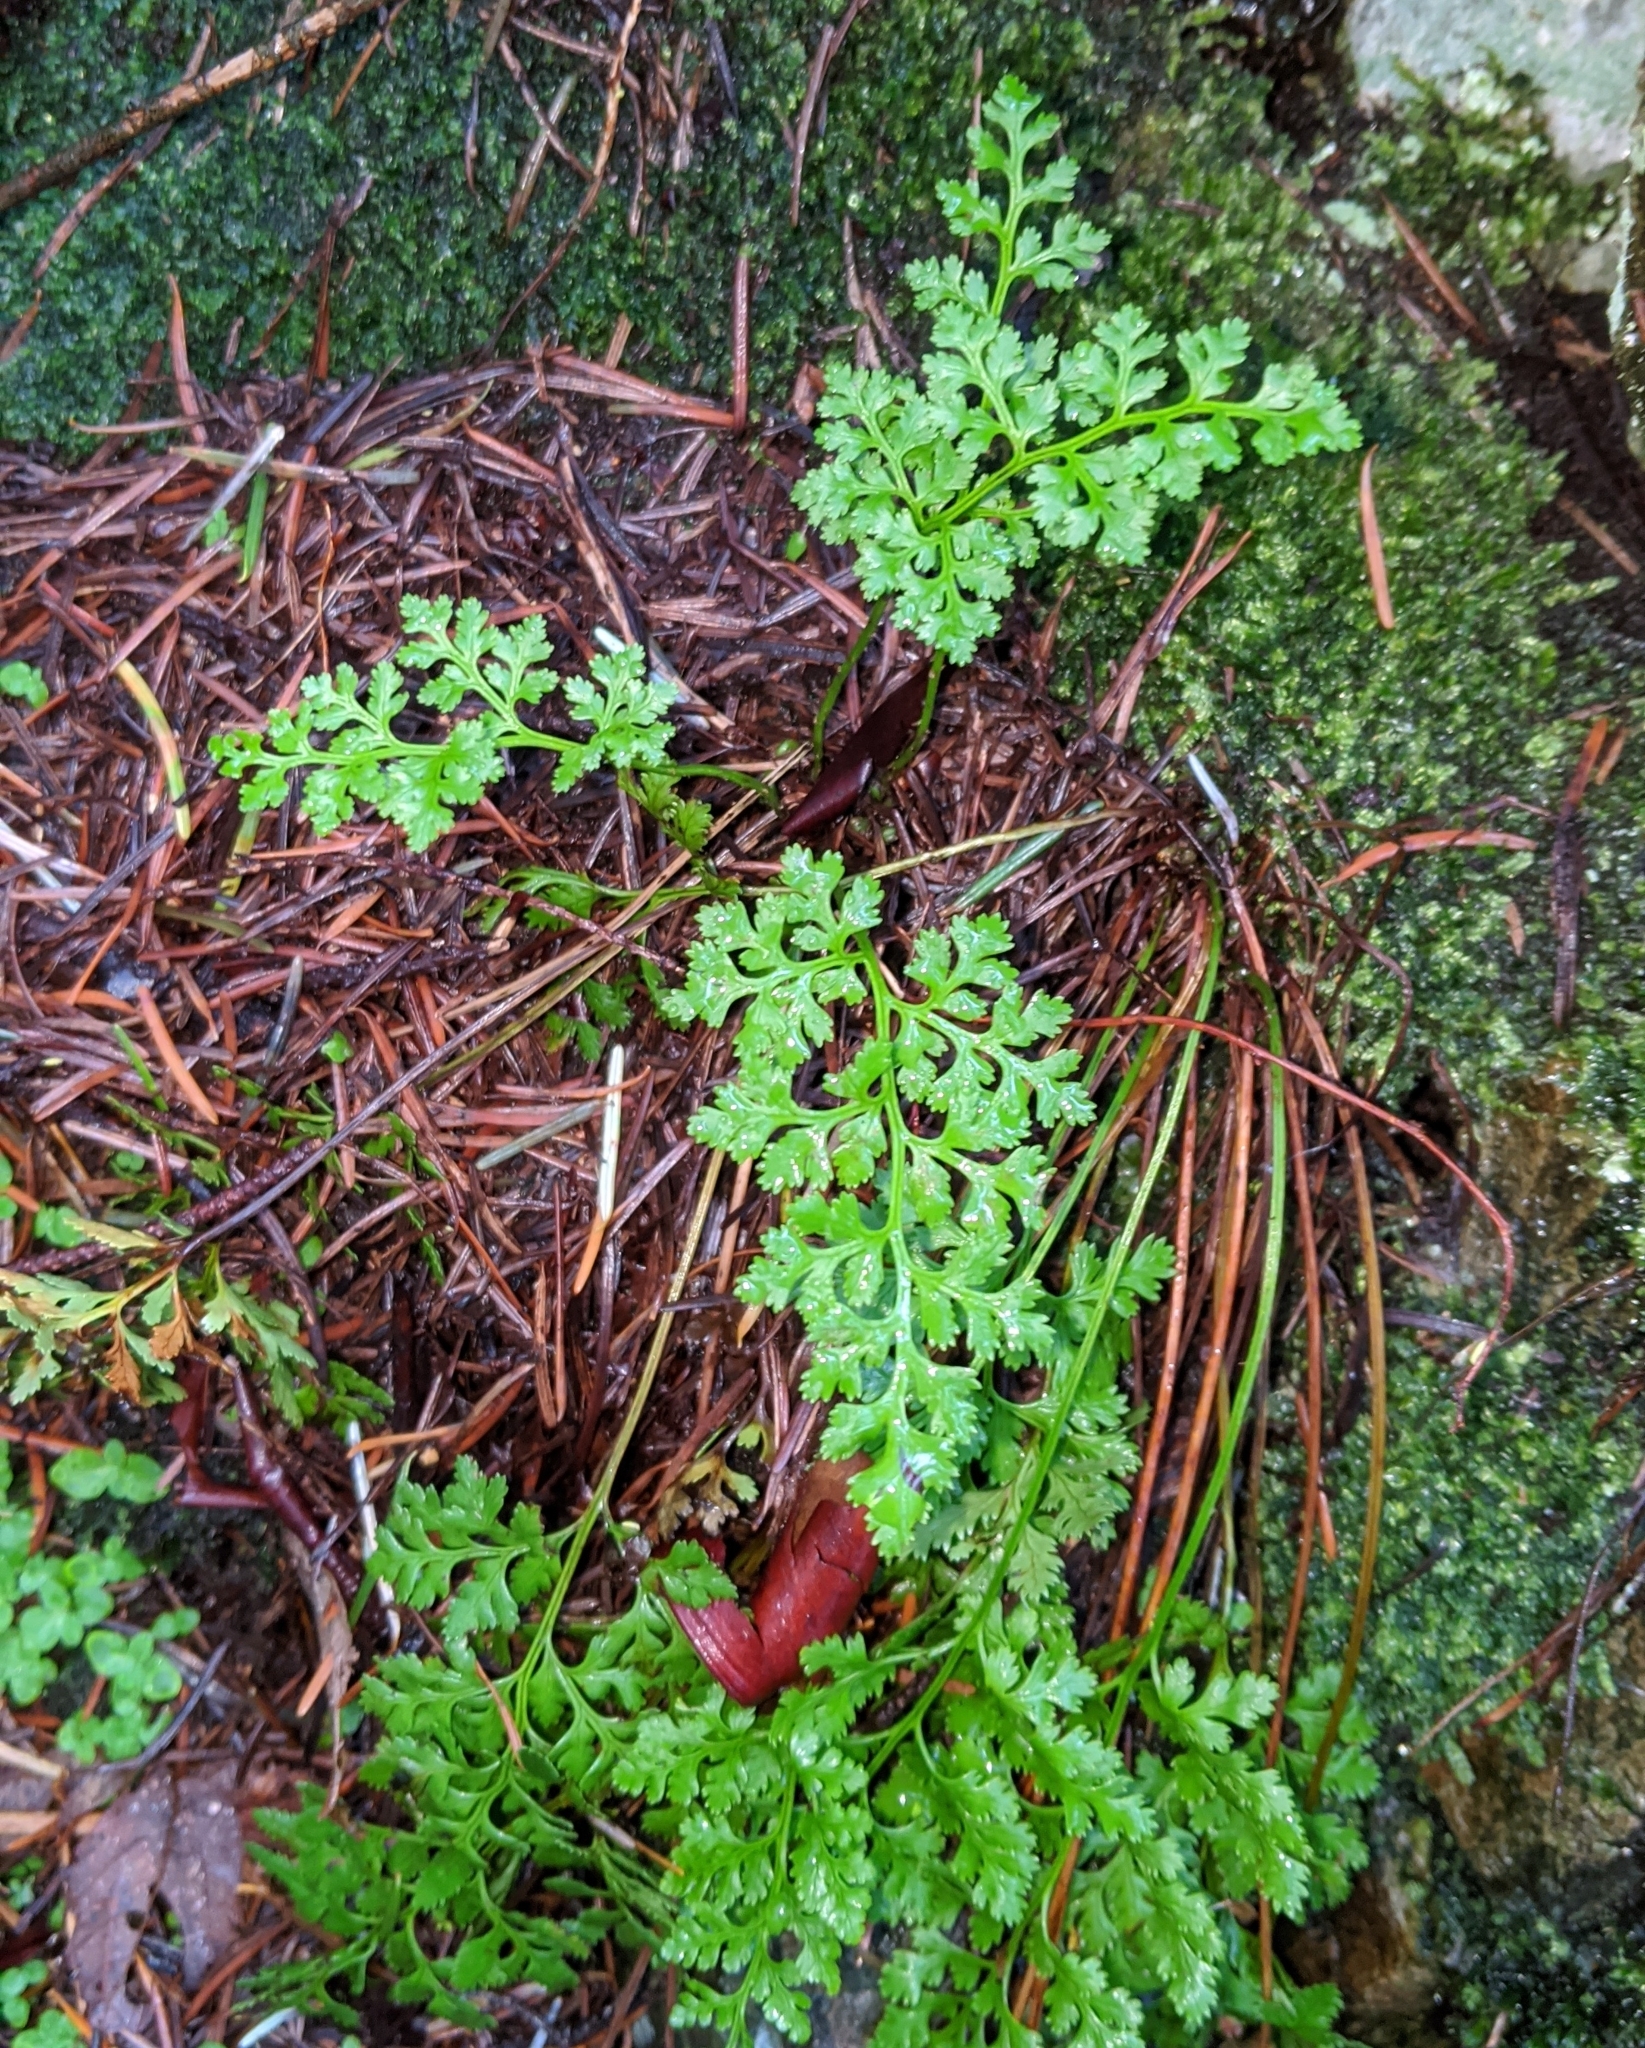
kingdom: Plantae
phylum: Tracheophyta
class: Polypodiopsida
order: Polypodiales
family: Pteridaceae
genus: Cryptogramma
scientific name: Cryptogramma acrostichoides
